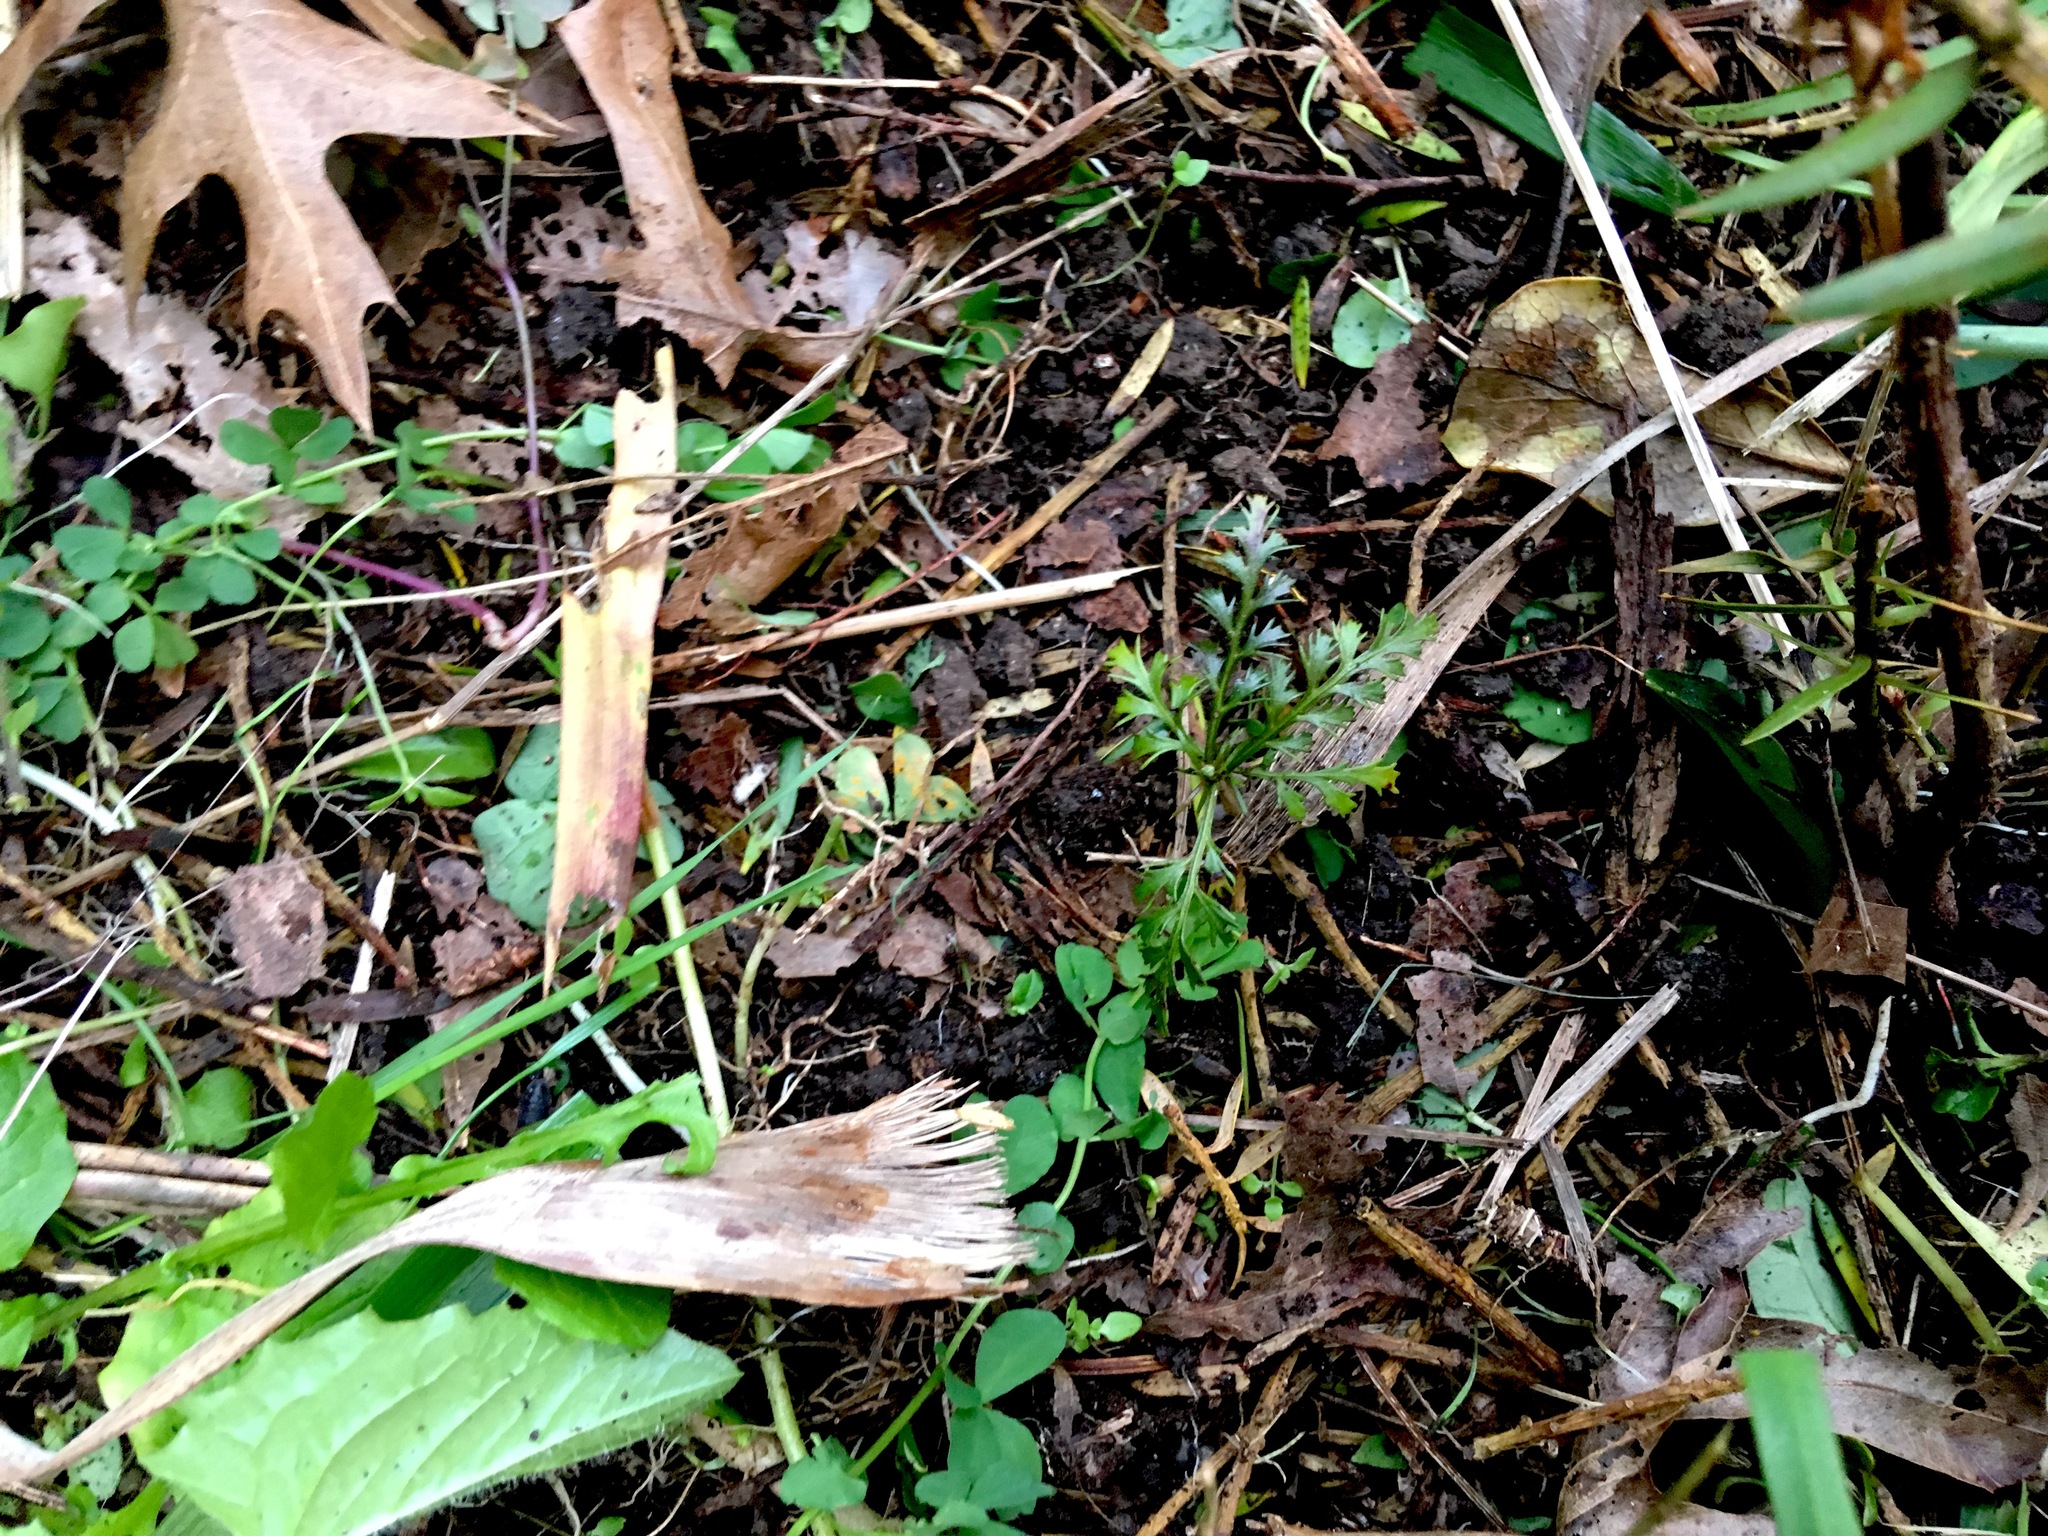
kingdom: Plantae
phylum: Tracheophyta
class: Pinopsida
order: Pinales
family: Phyllocladaceae
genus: Phyllocladus
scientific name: Phyllocladus trichomanoides
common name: Celery pine
